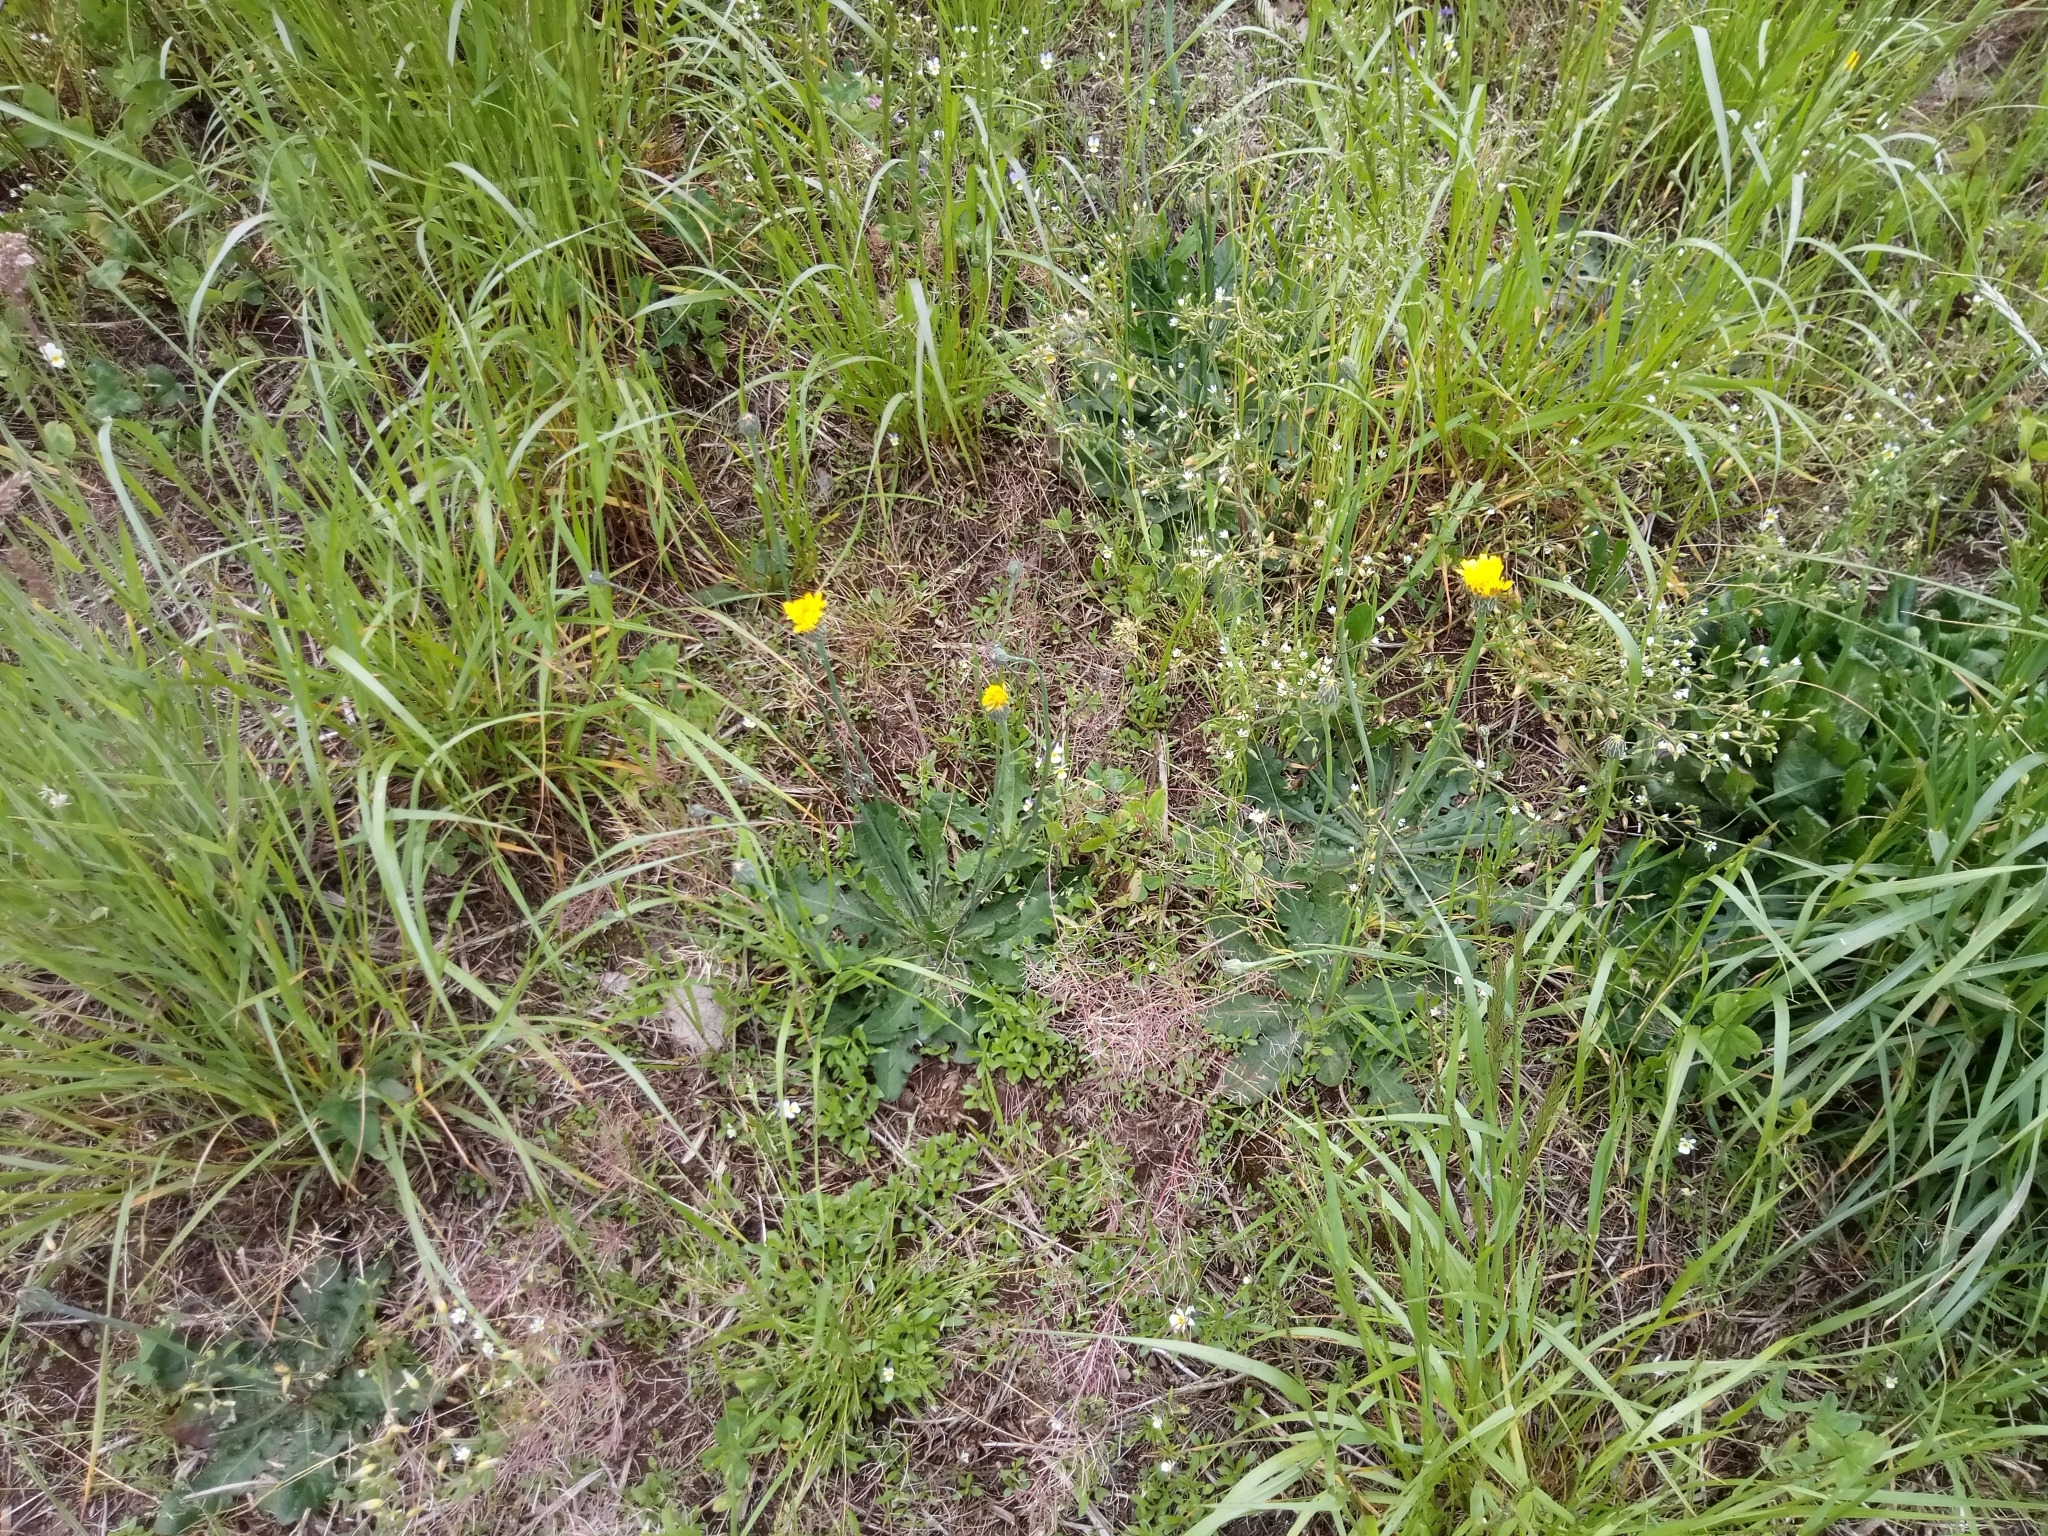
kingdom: Plantae
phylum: Tracheophyta
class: Magnoliopsida
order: Asterales
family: Asteraceae
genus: Hypochaeris
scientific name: Hypochaeris radicata
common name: Flatweed
